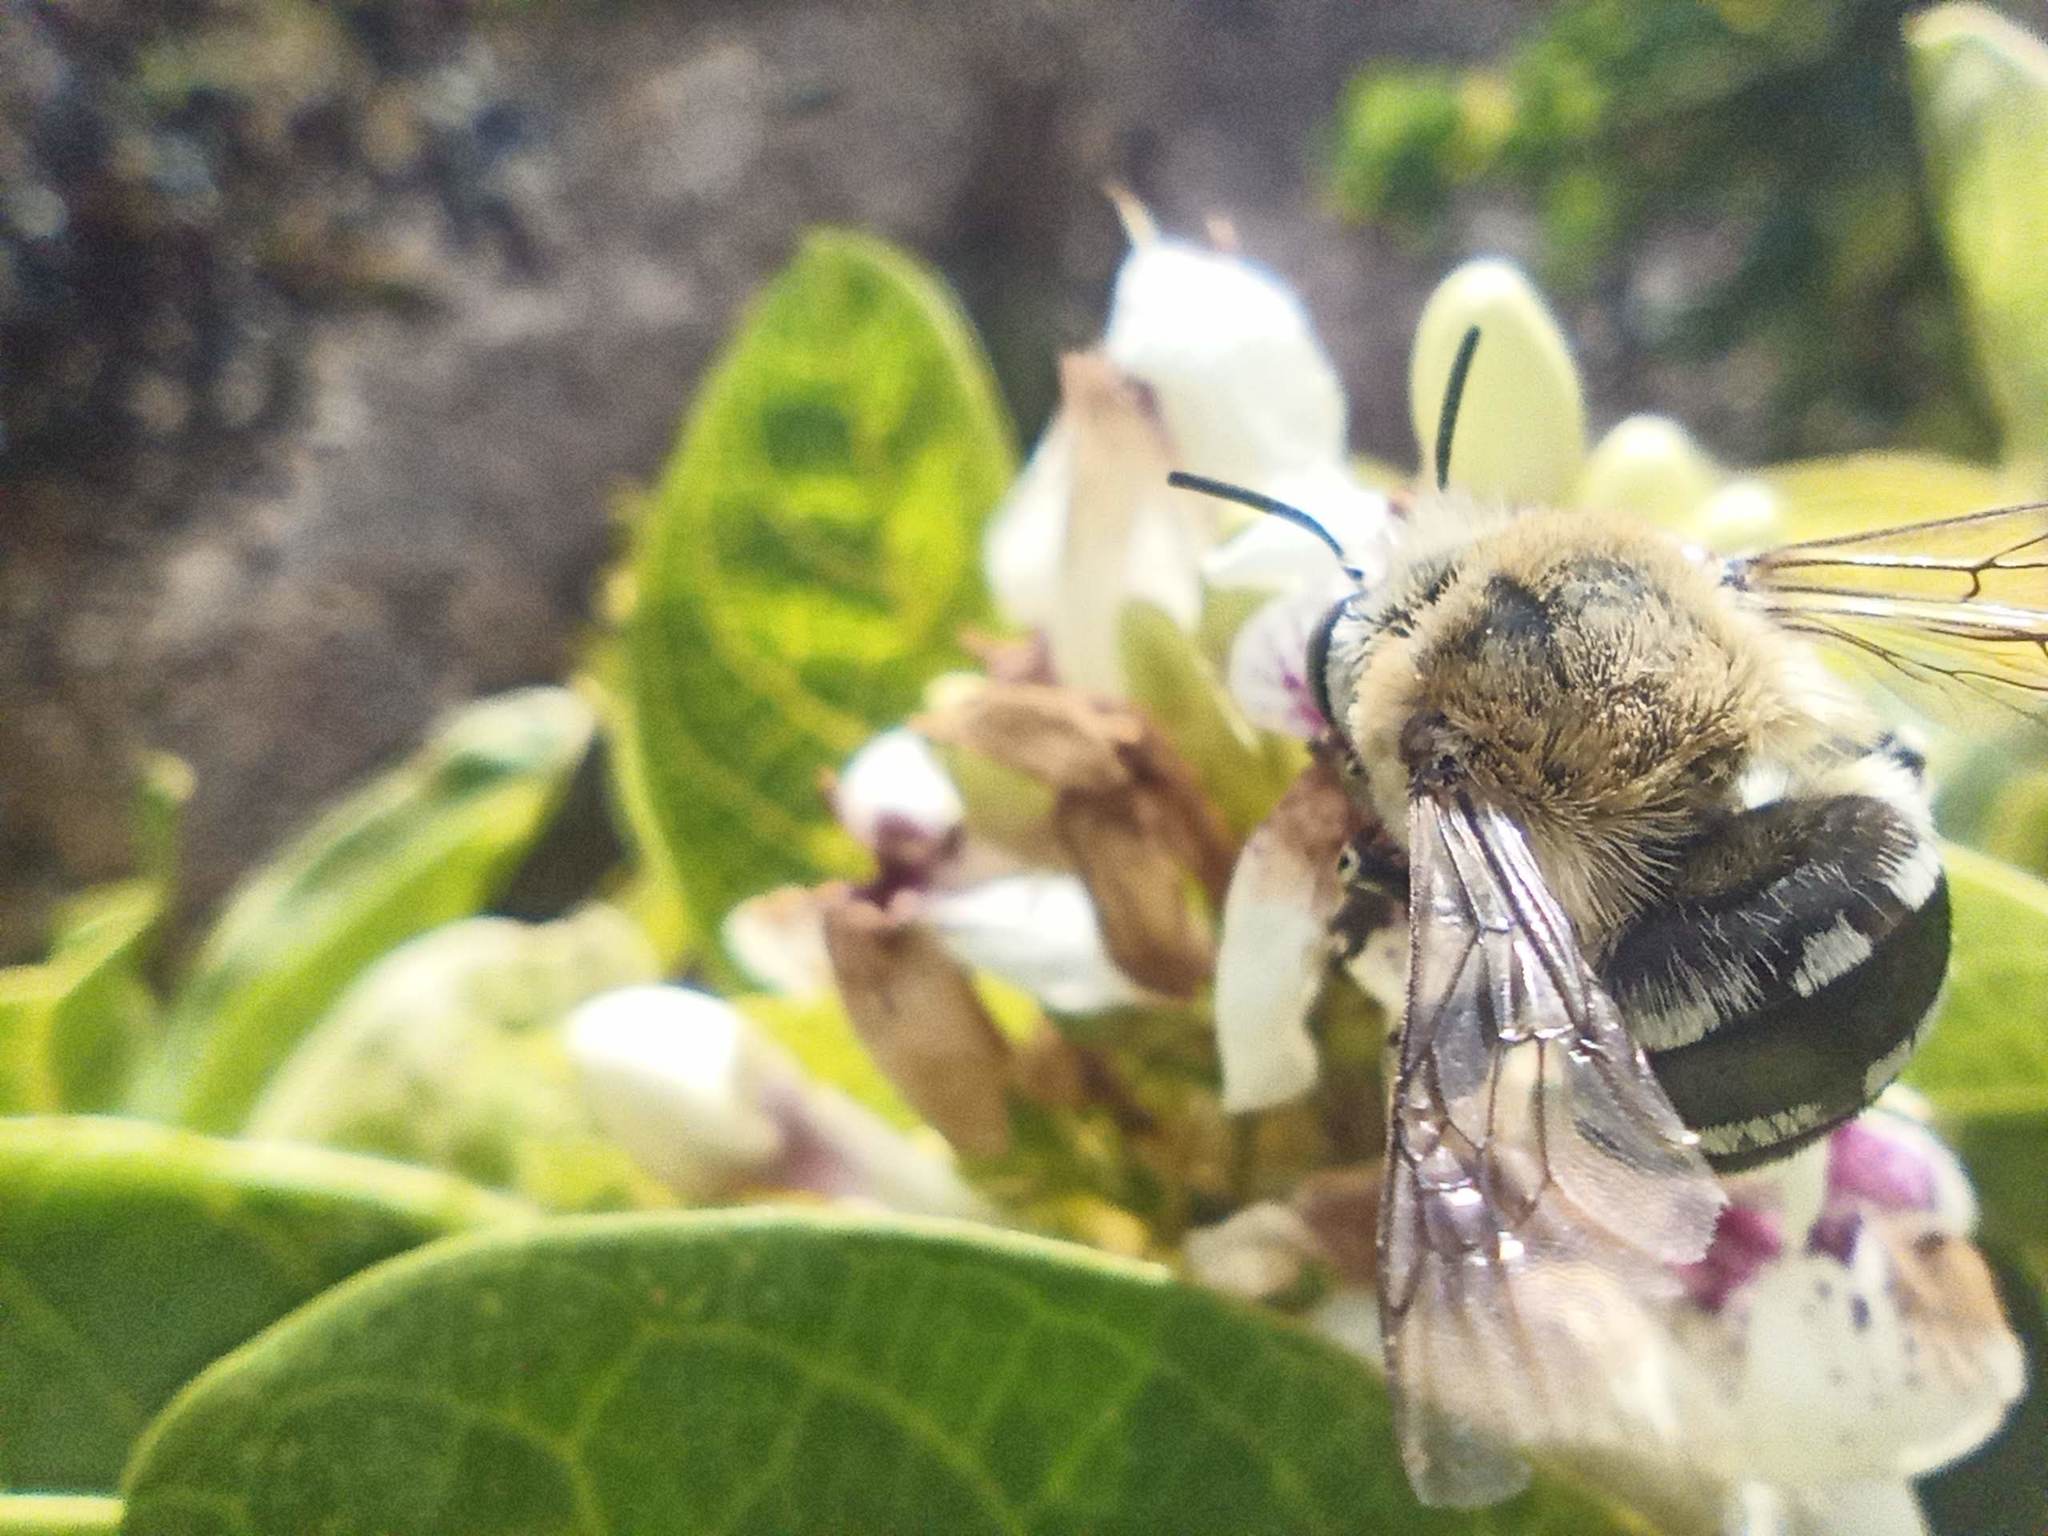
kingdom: Animalia
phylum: Arthropoda
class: Insecta
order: Hymenoptera
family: Apidae
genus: Amegilla
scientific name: Amegilla quadrifasciata
